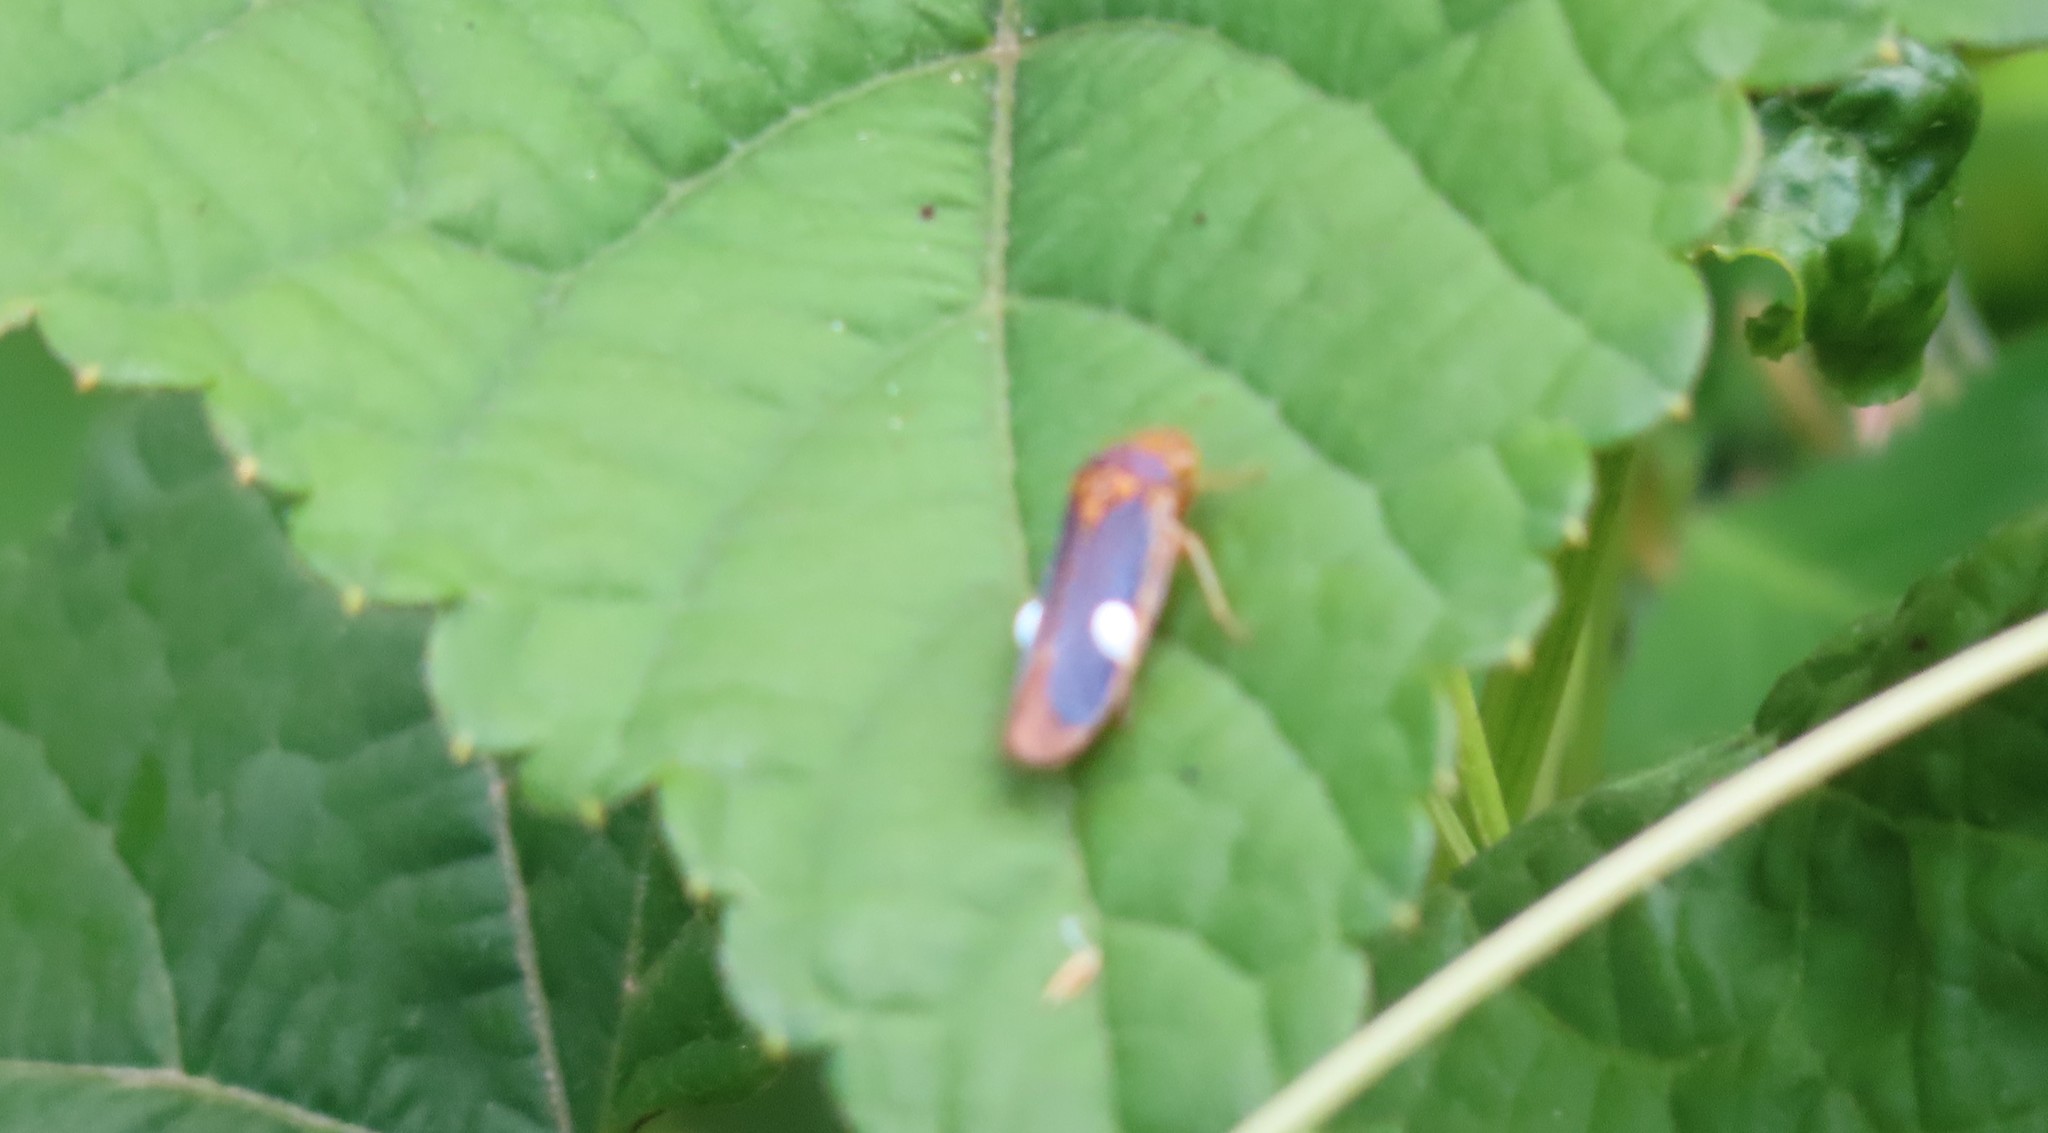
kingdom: Animalia
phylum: Arthropoda
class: Insecta
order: Hemiptera
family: Cicadellidae
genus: Oncometopia
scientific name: Oncometopia orbona
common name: Broad-headed sharpshooter
